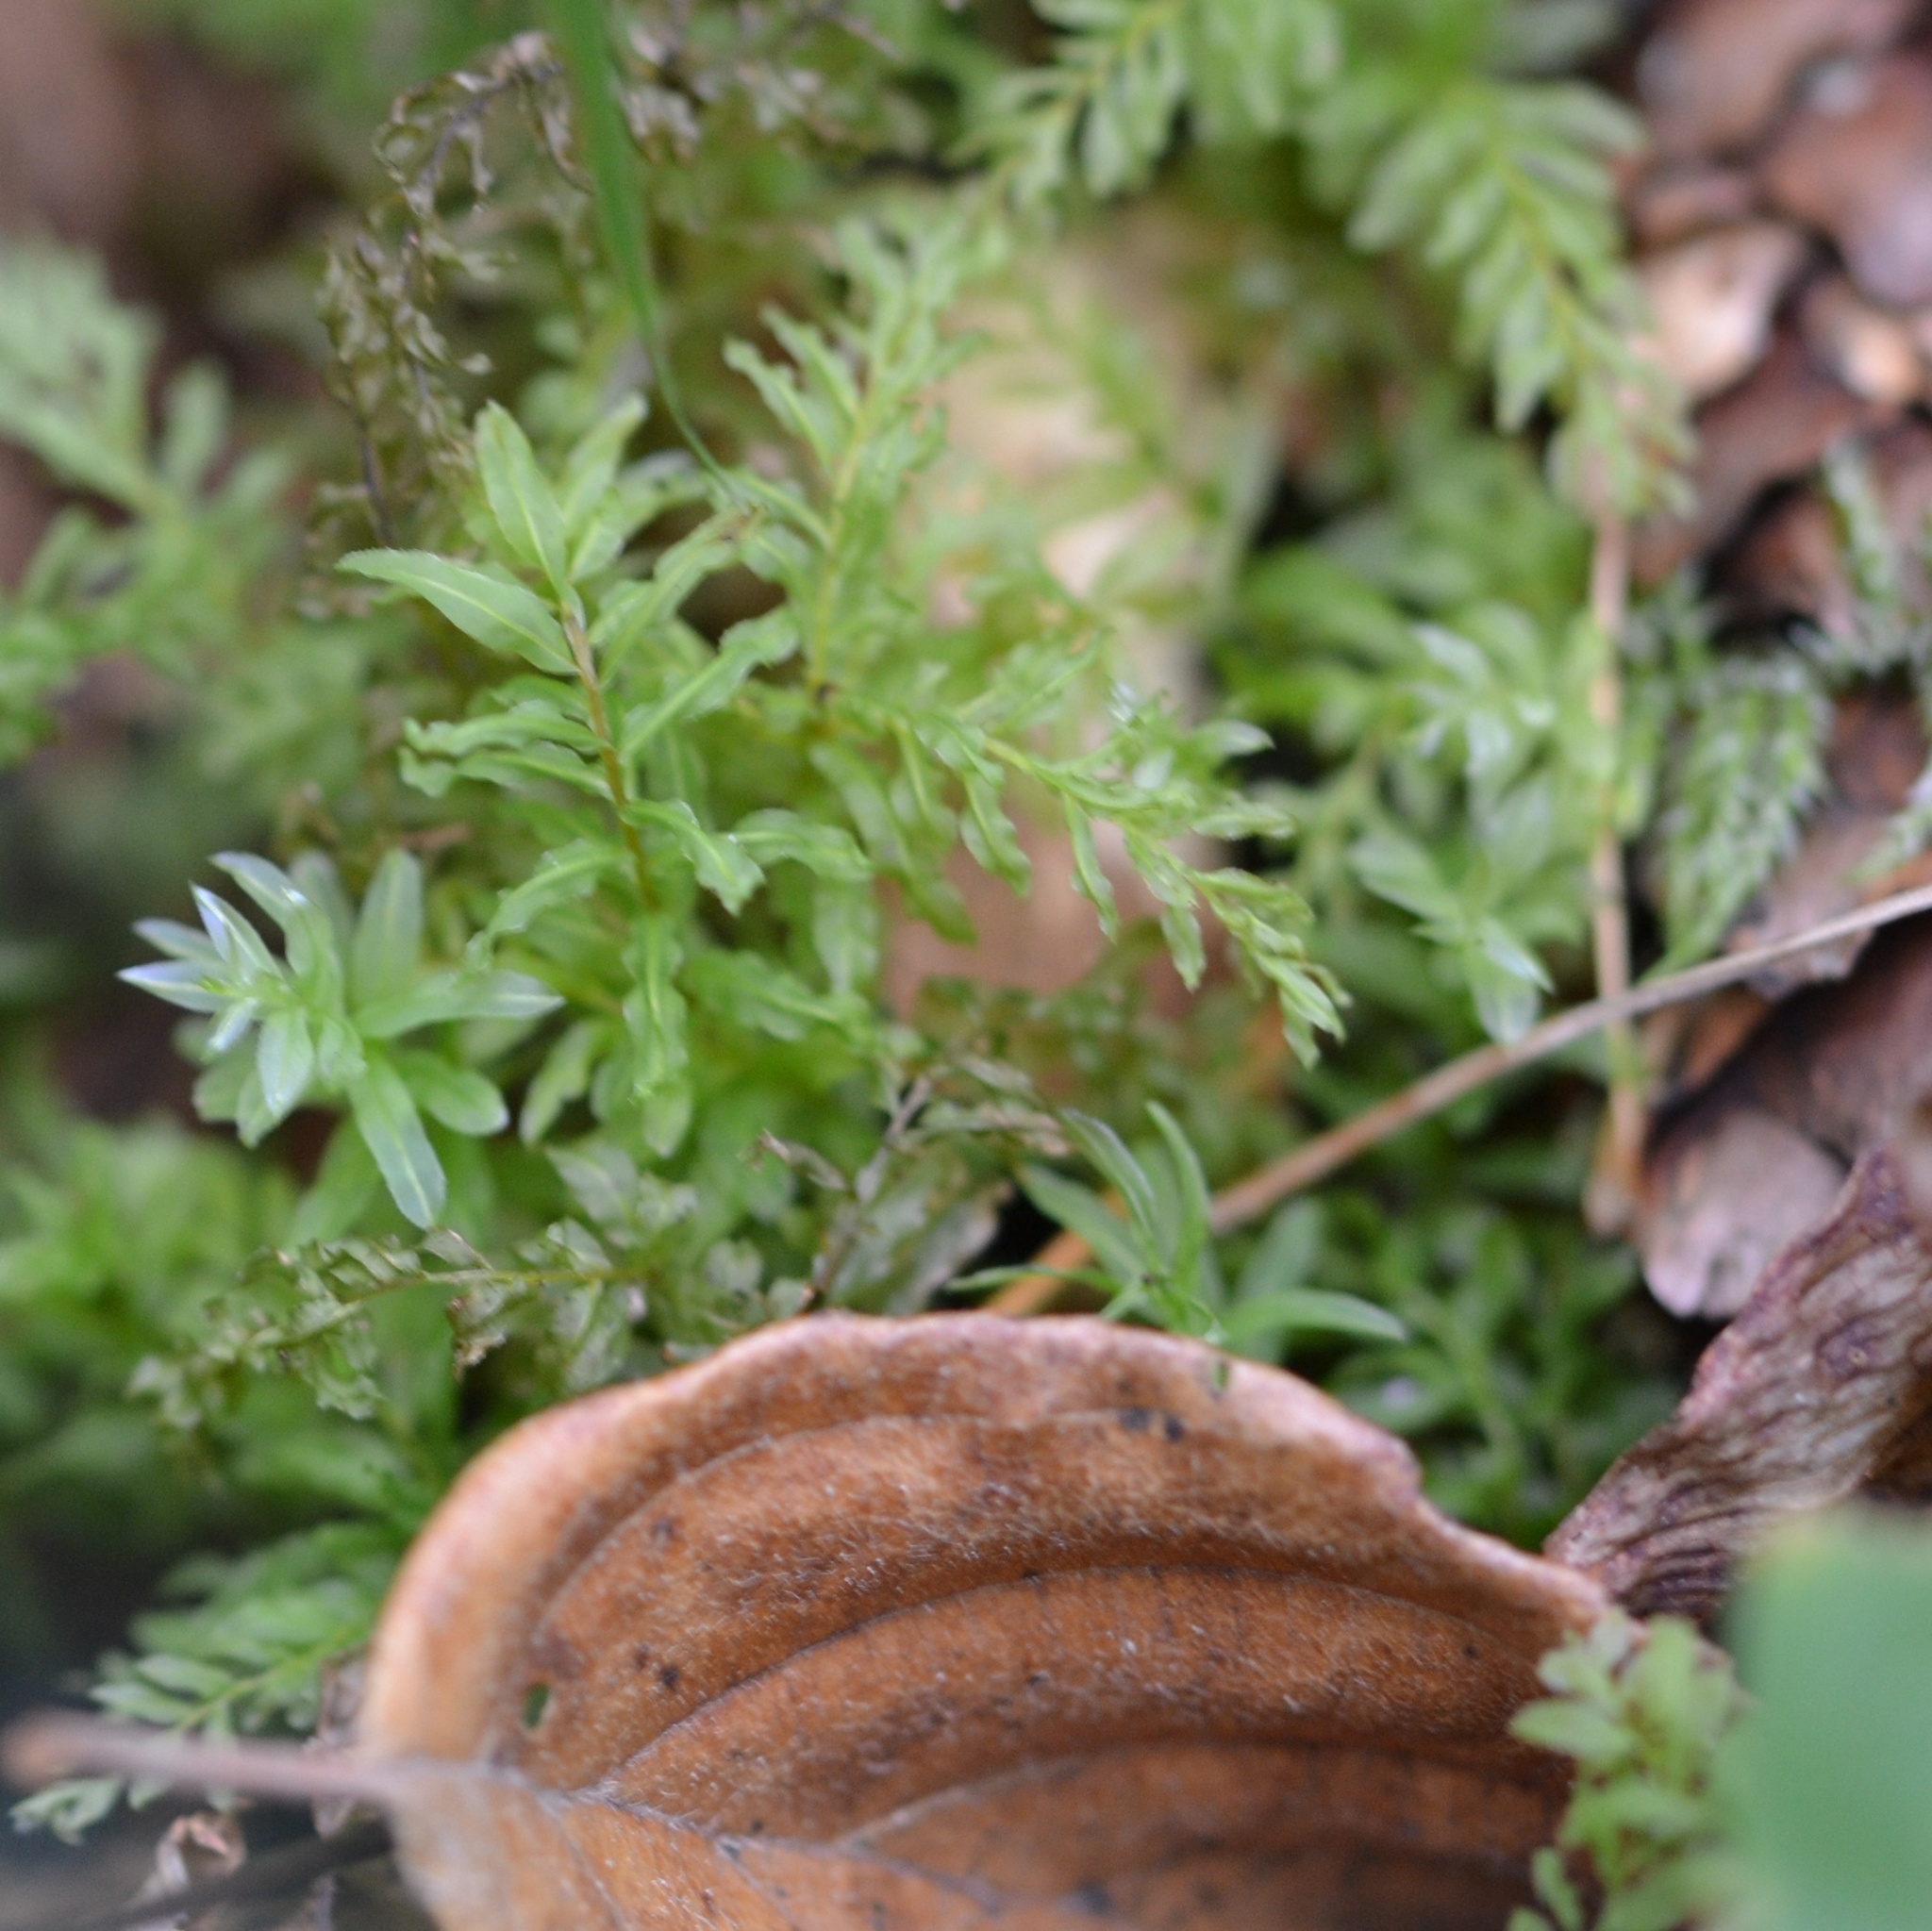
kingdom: Plantae
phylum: Bryophyta
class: Bryopsida
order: Bryales
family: Mniaceae
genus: Plagiomnium
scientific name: Plagiomnium undulatum
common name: Hart's-tongue thyme-moss
